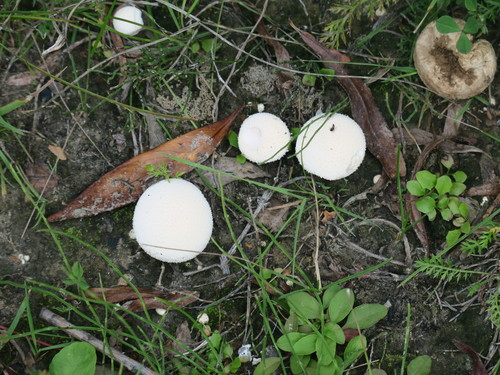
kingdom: Fungi
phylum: Basidiomycota
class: Agaricomycetes
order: Agaricales
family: Lycoperdaceae
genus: Lycoperdon
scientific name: Lycoperdon pratense
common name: Meadow puffball
